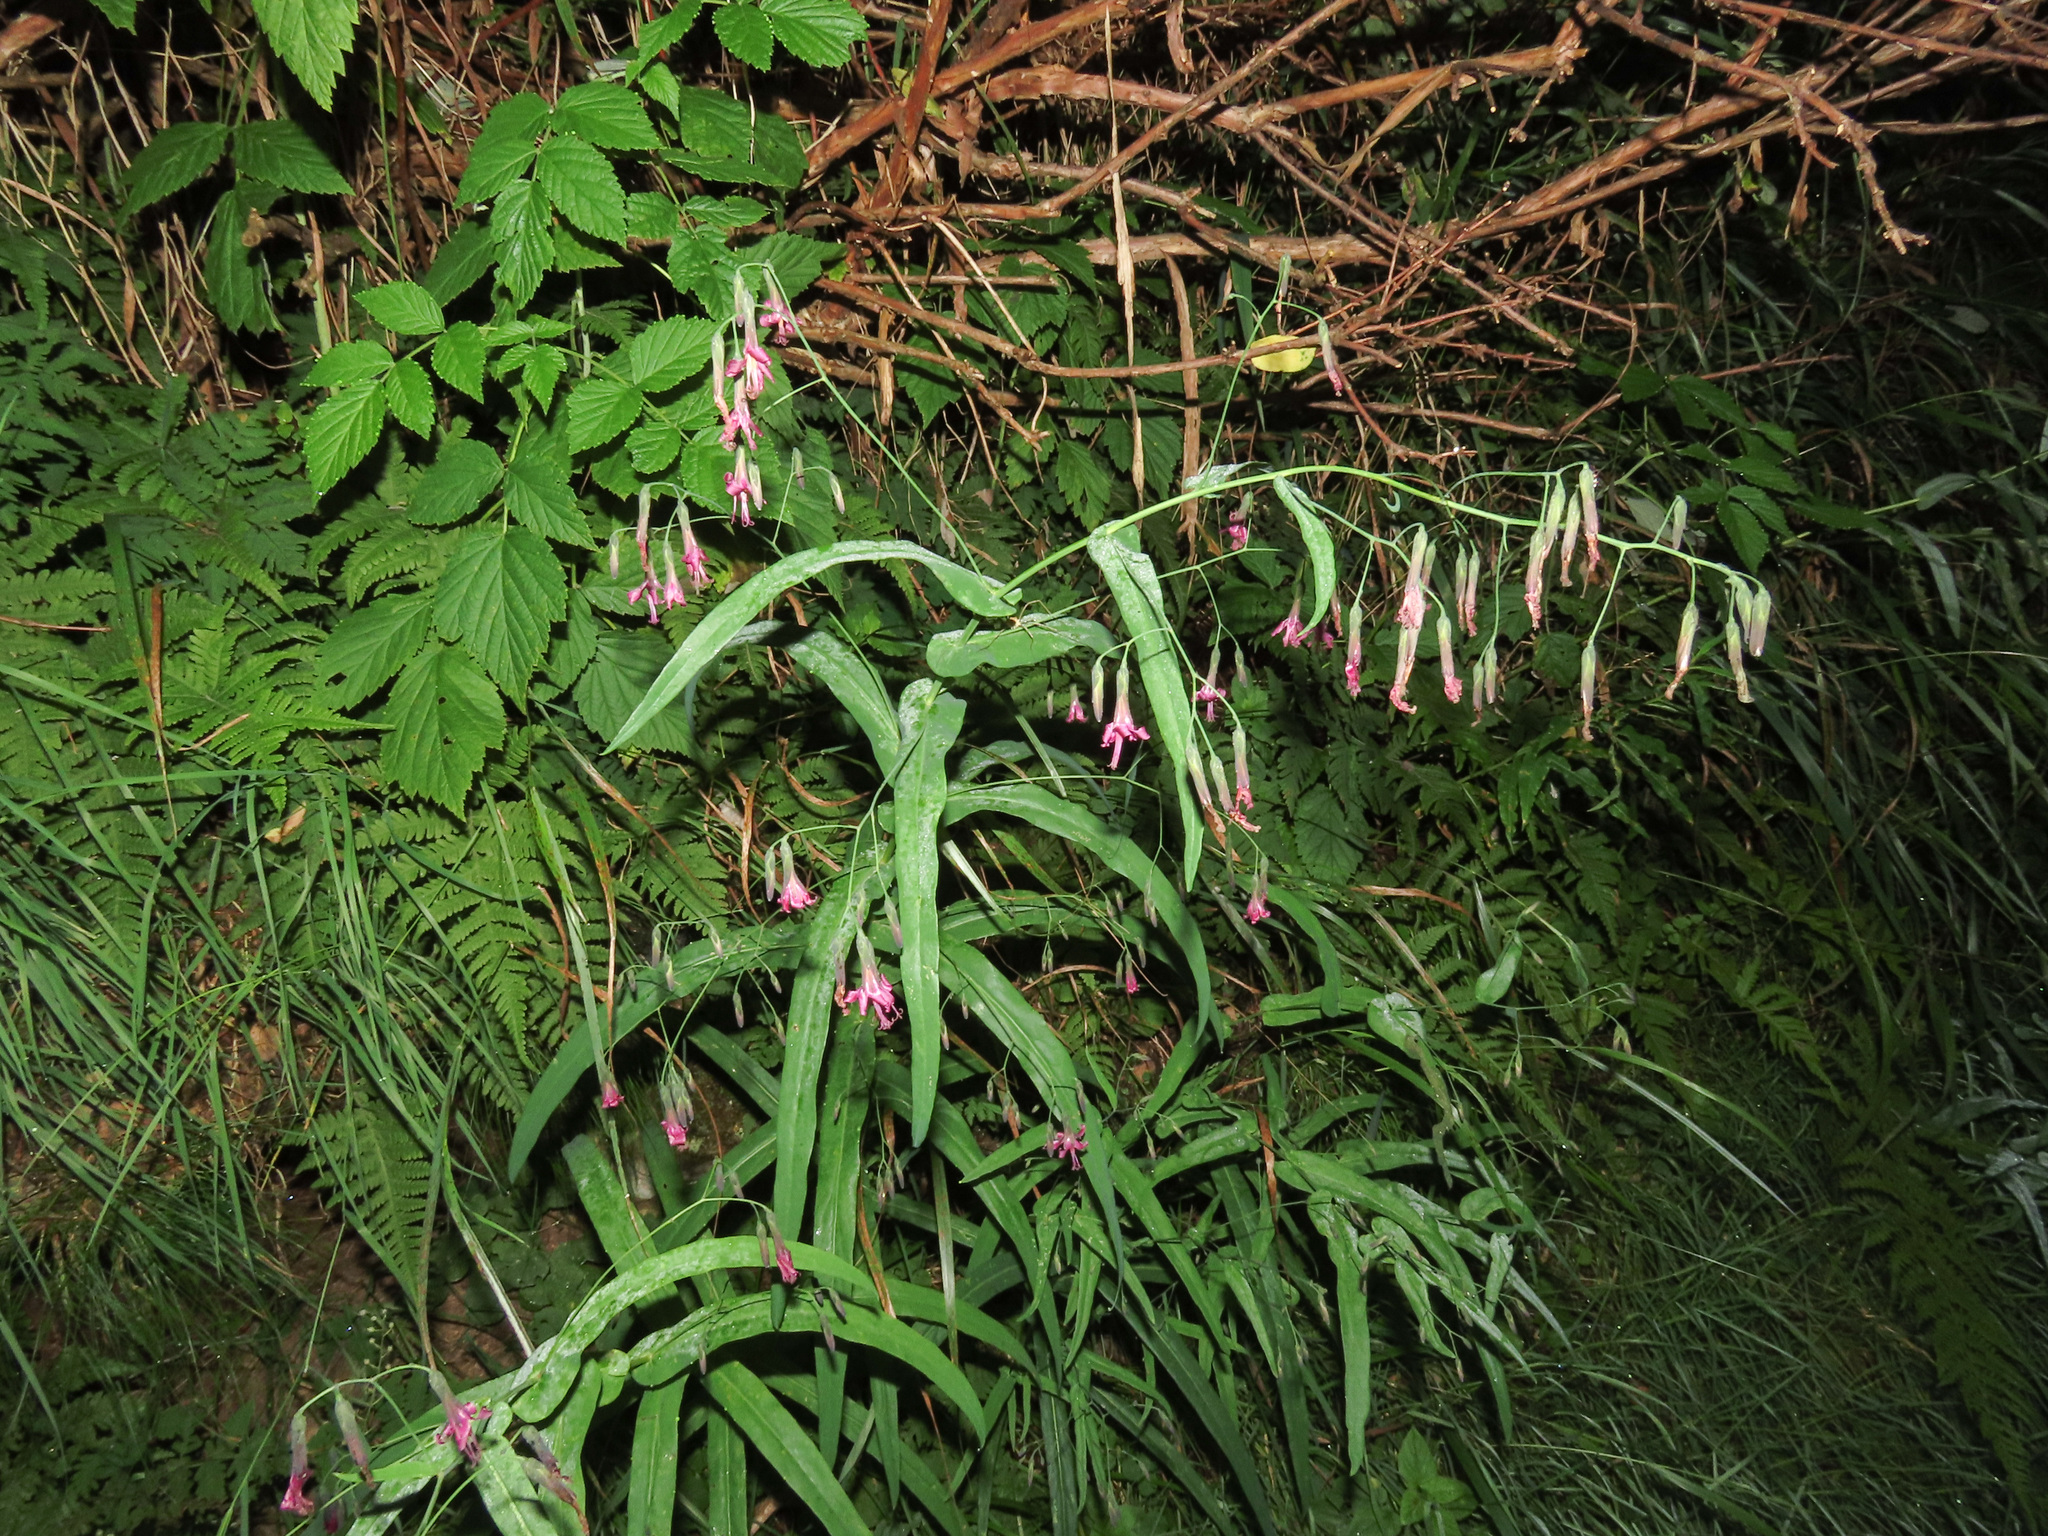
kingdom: Plantae
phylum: Tracheophyta
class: Magnoliopsida
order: Asterales
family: Asteraceae
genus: Prenanthes
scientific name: Prenanthes purpurea
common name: Purple lettuce
